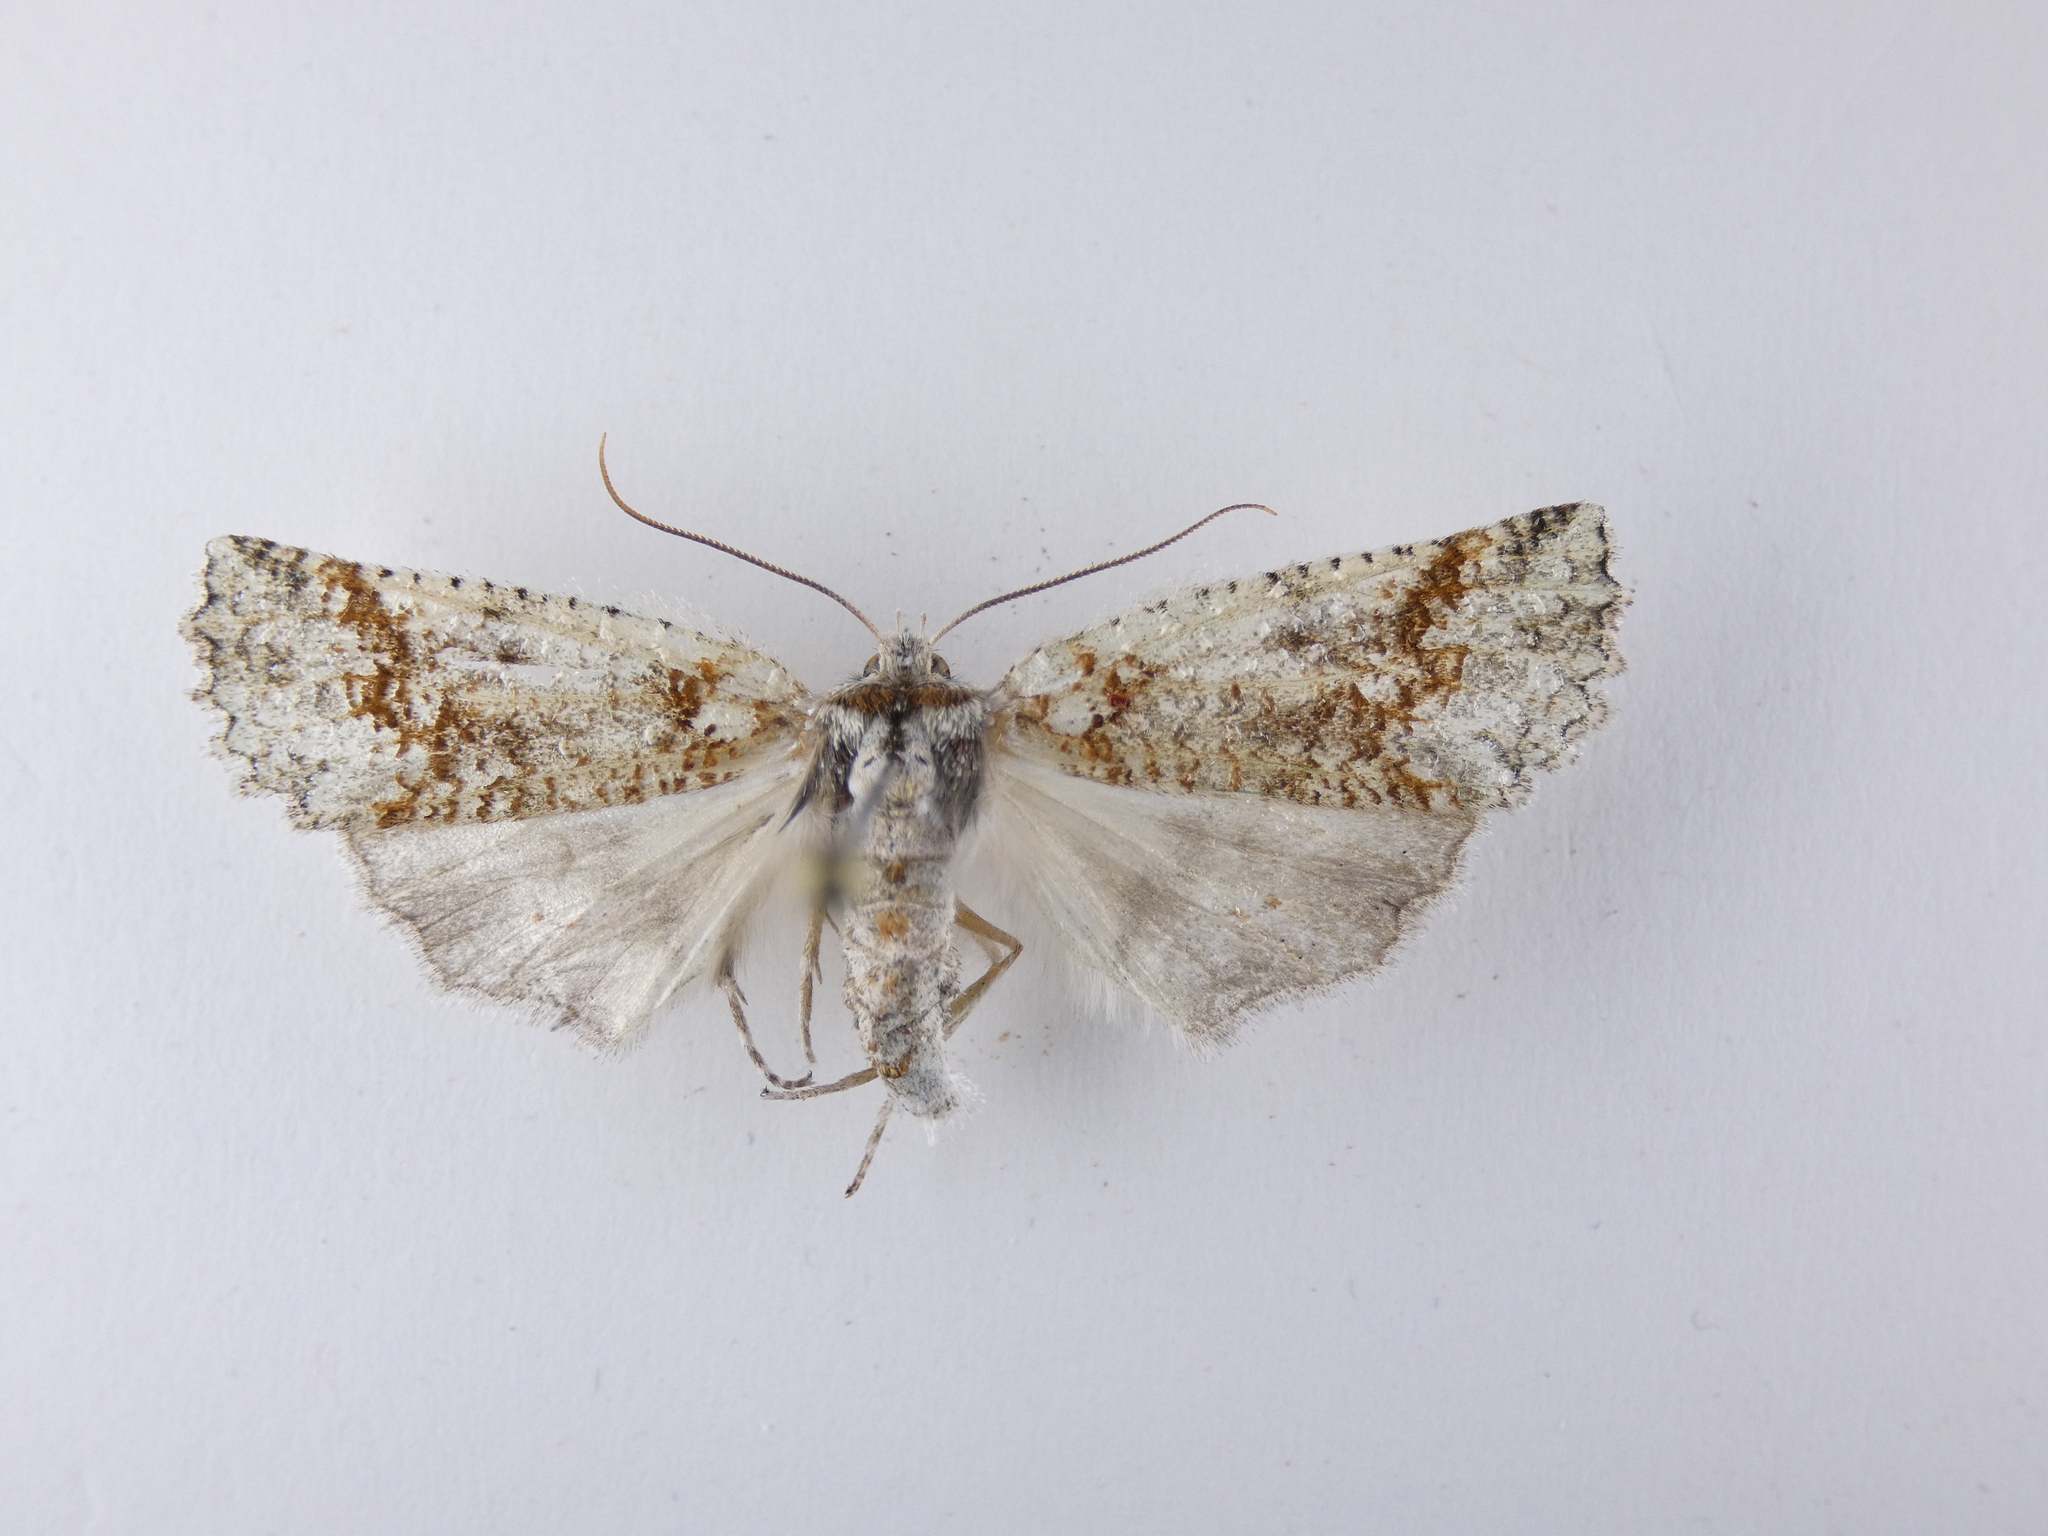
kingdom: Animalia
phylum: Arthropoda
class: Insecta
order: Lepidoptera
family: Geometridae
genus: Declana
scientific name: Declana floccosa
